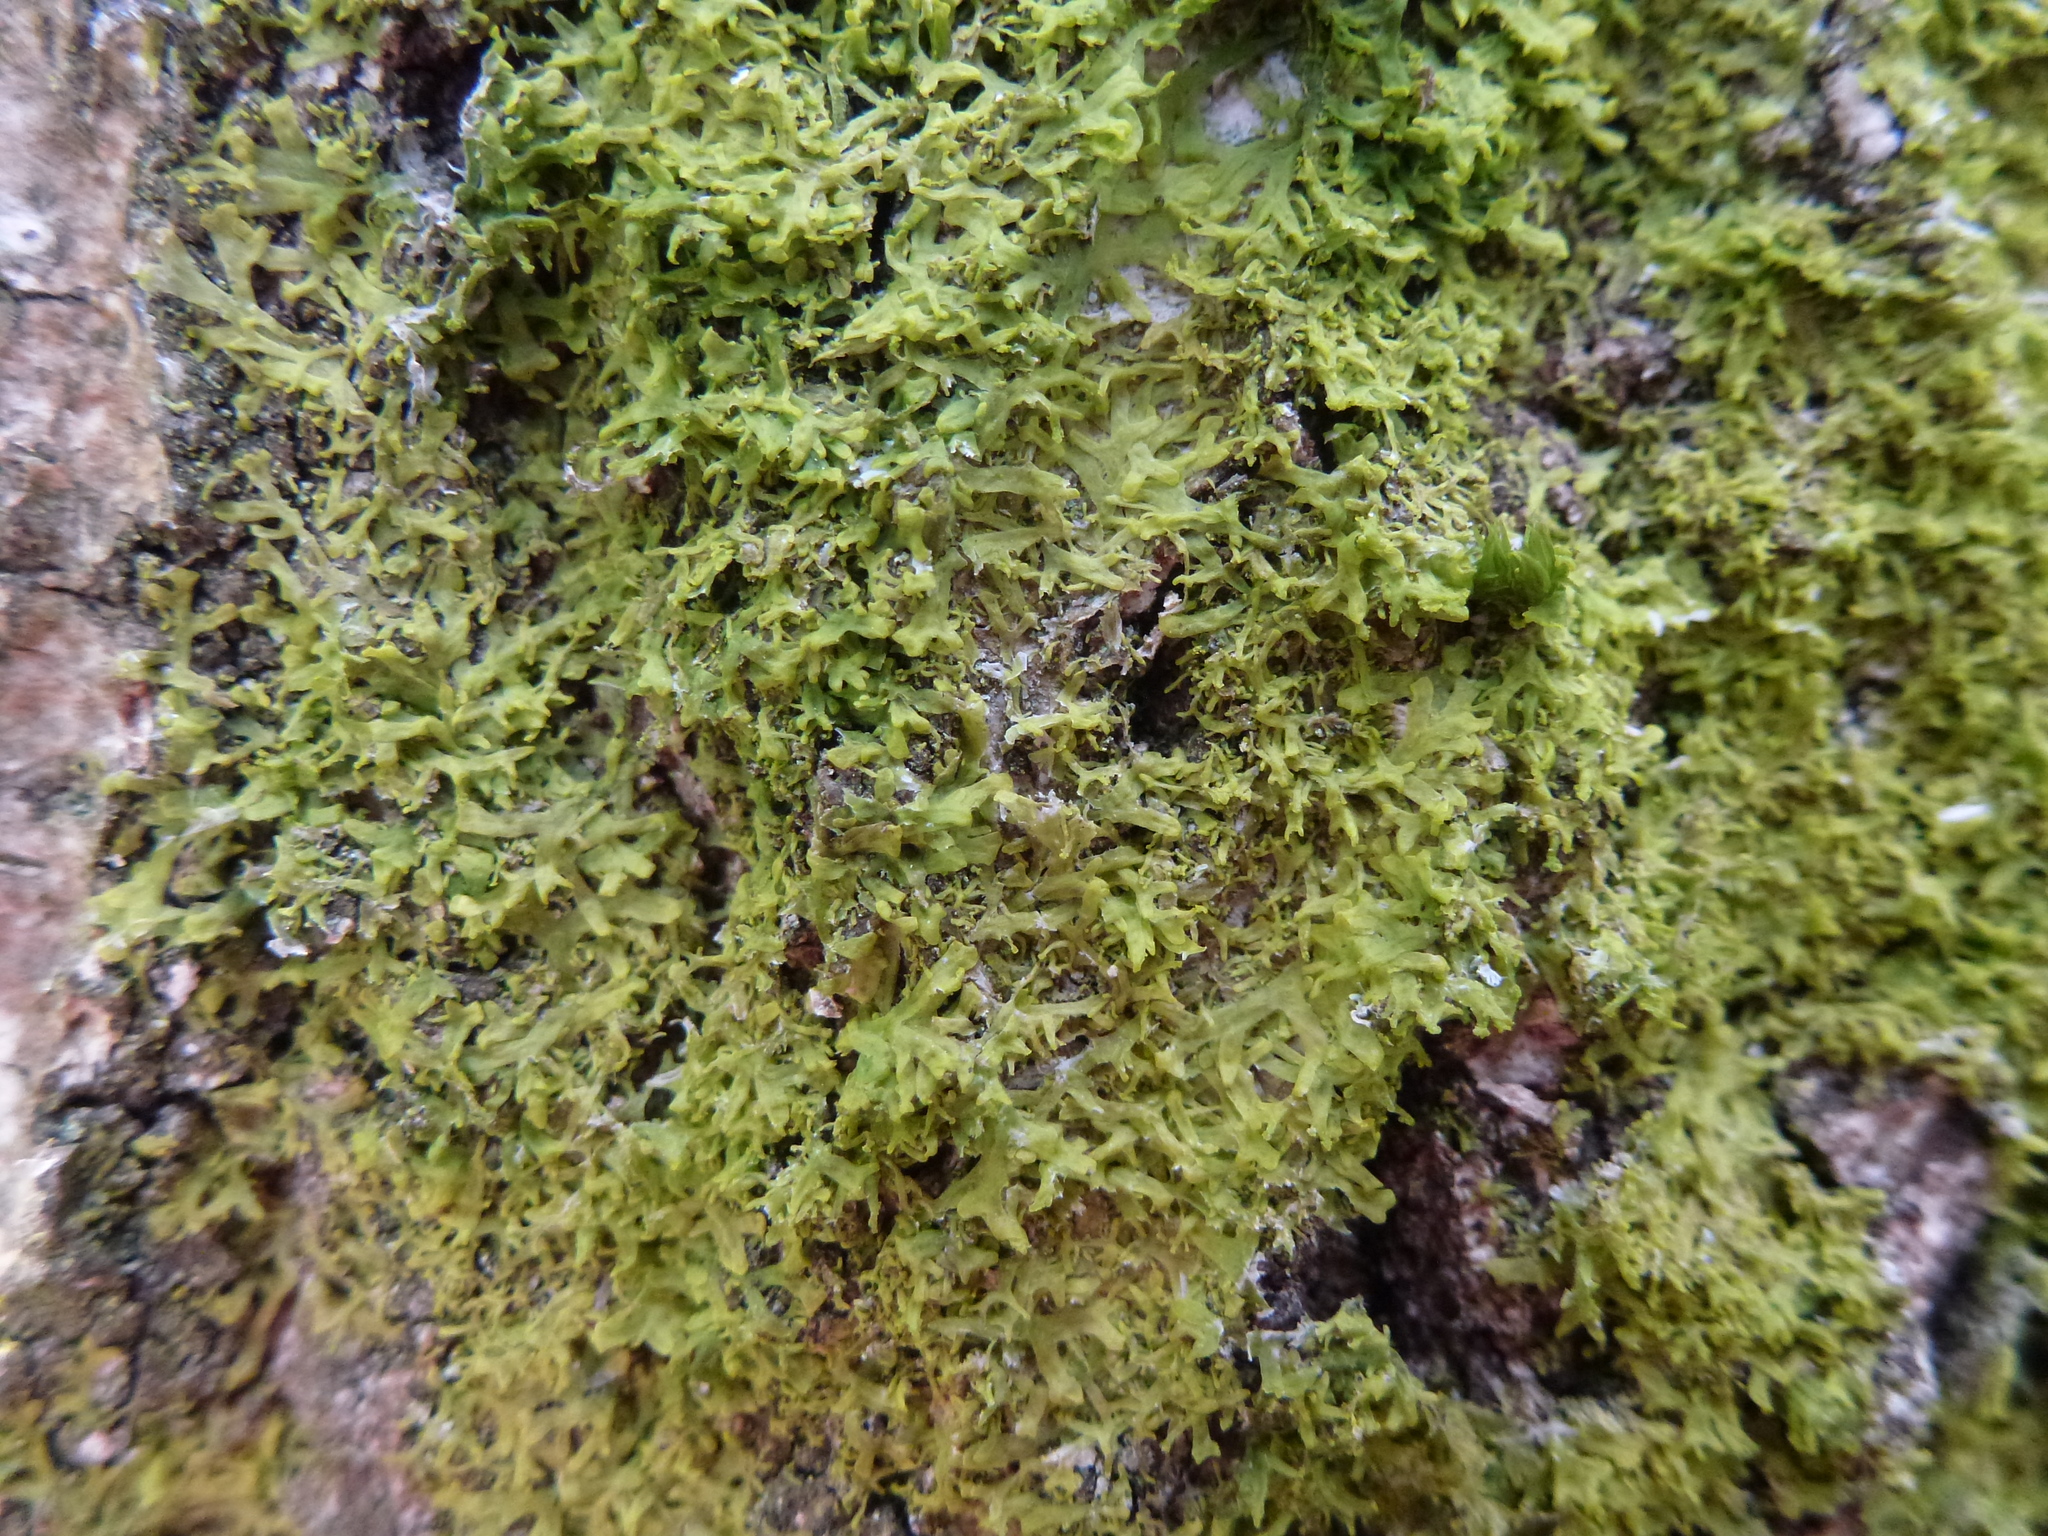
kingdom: Plantae
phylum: Marchantiophyta
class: Jungermanniopsida
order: Metzgeriales
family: Metzgeriaceae
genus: Metzgeria
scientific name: Metzgeria violacea
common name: Blueish veilwort
